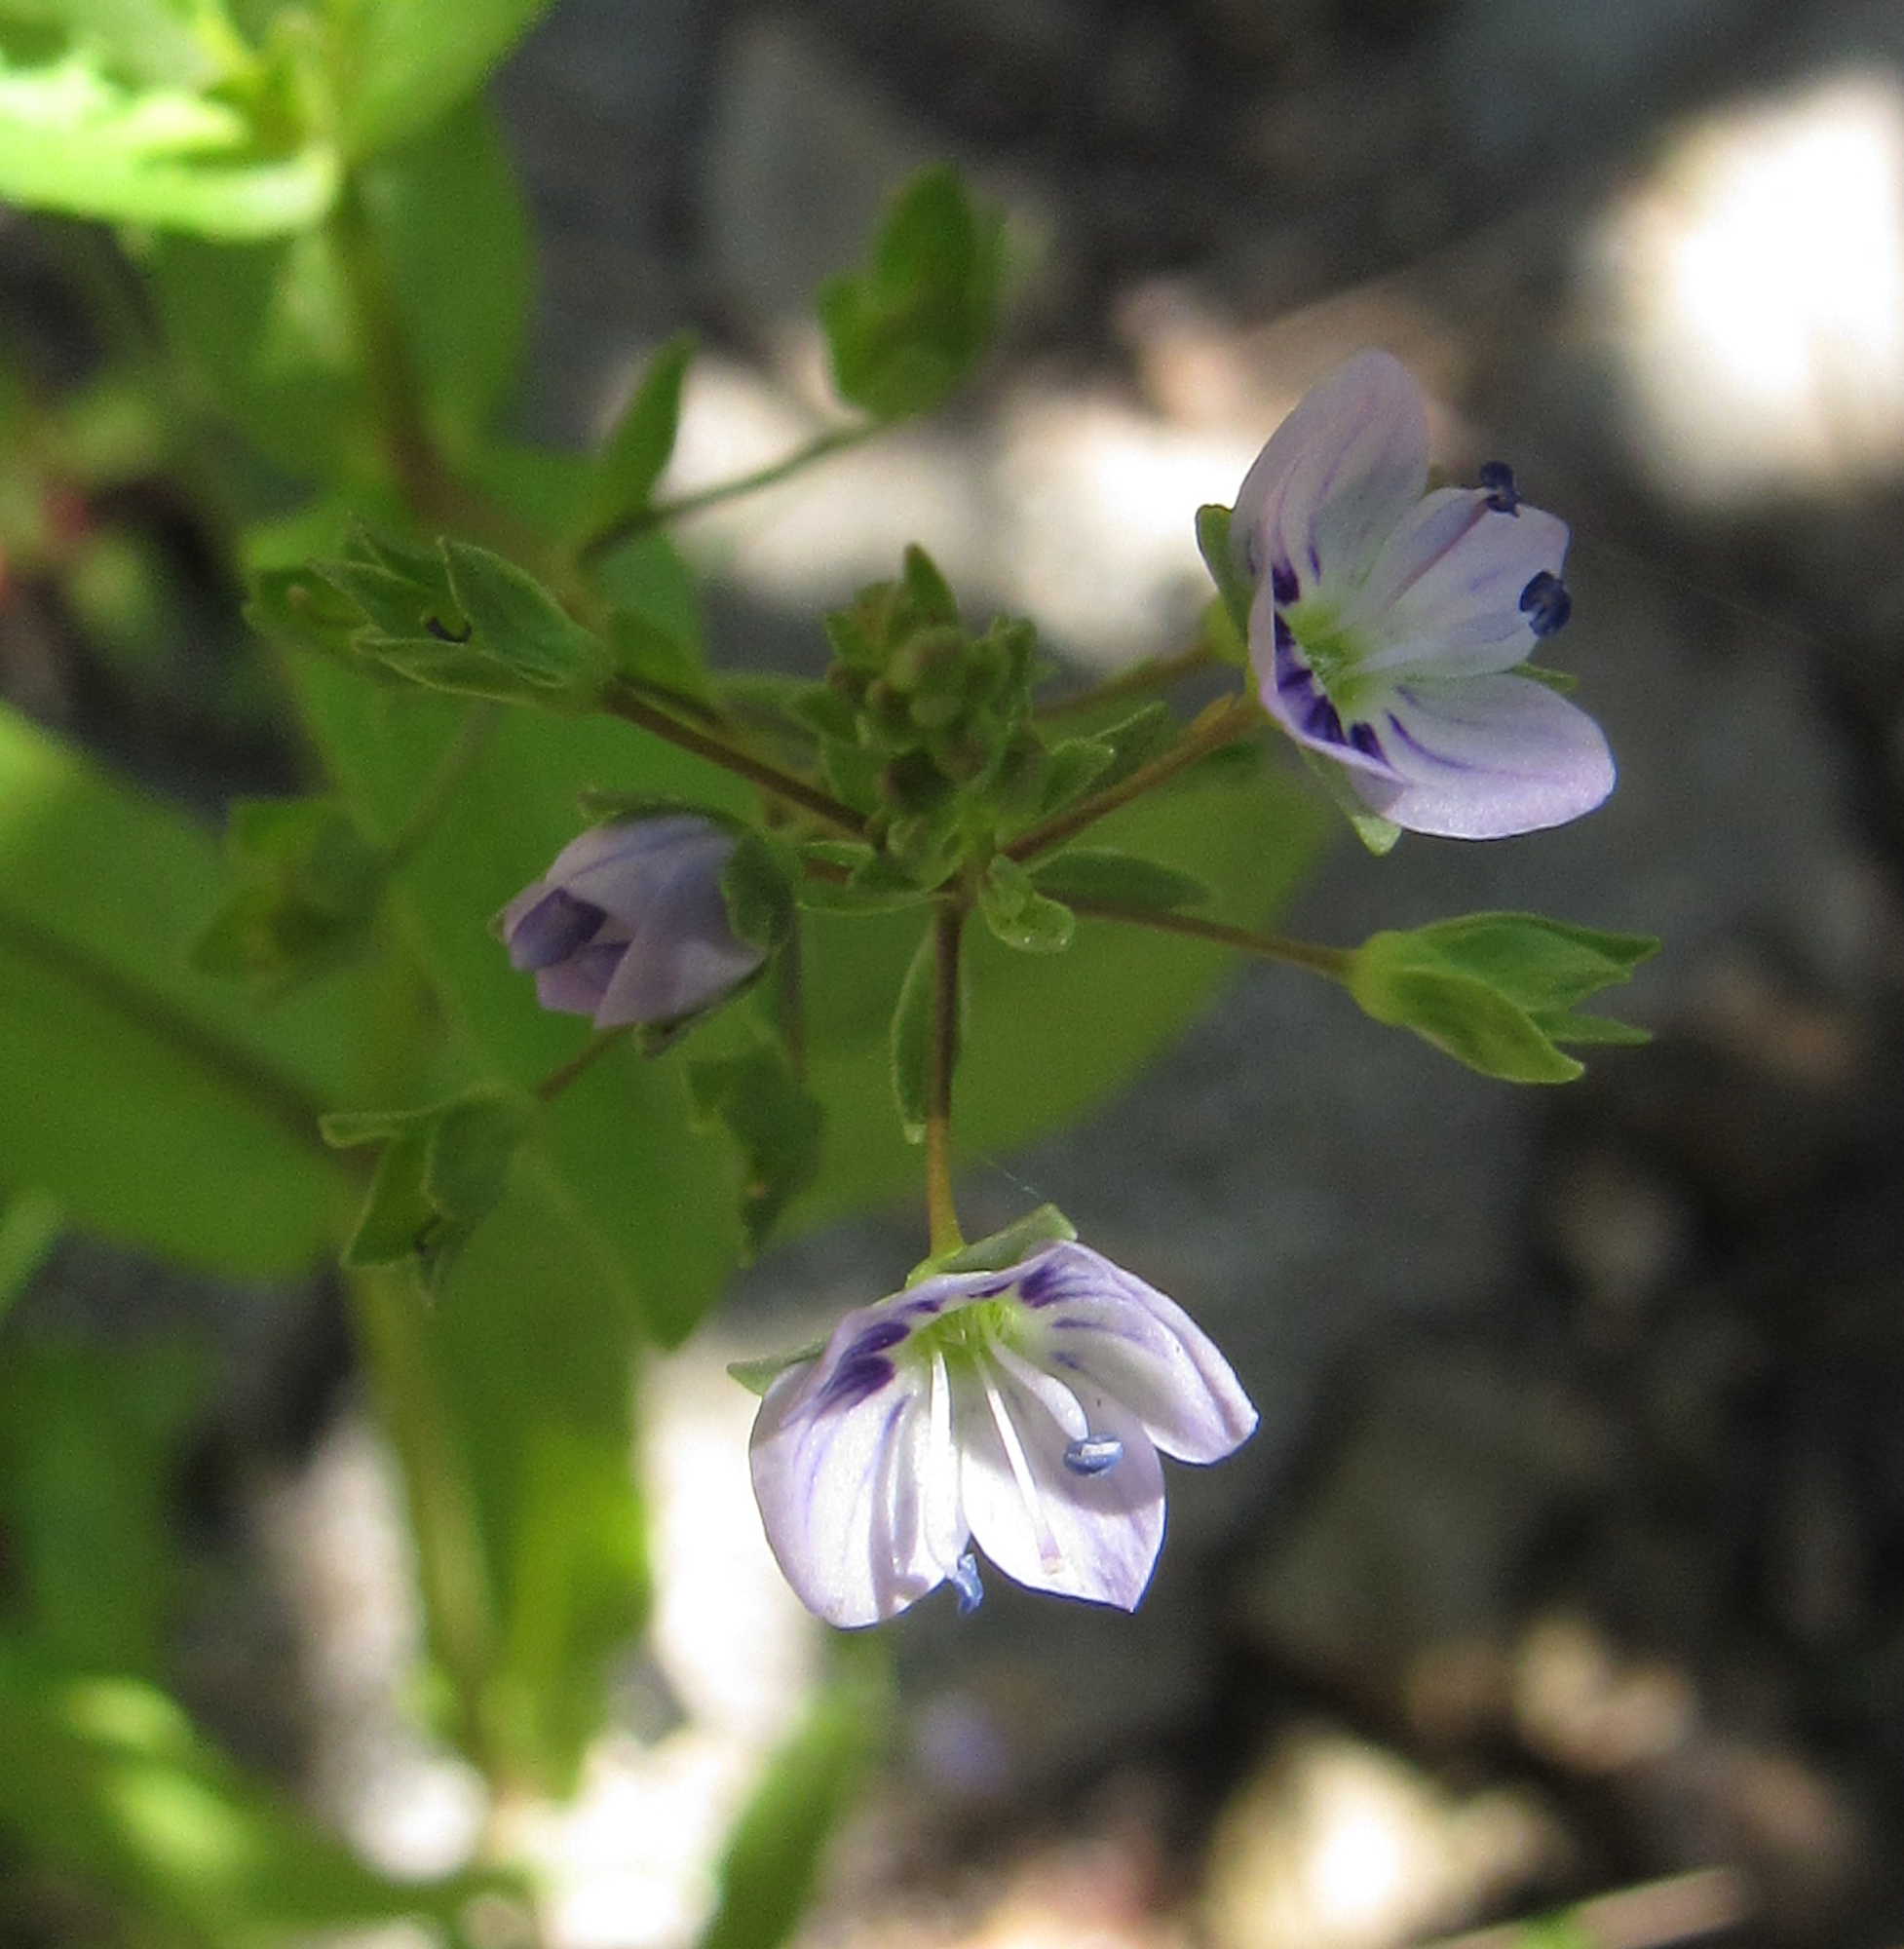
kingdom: Plantae
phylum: Tracheophyta
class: Magnoliopsida
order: Lamiales
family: Plantaginaceae
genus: Veronica
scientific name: Veronica anagallis-aquatica
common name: Water speedwell
